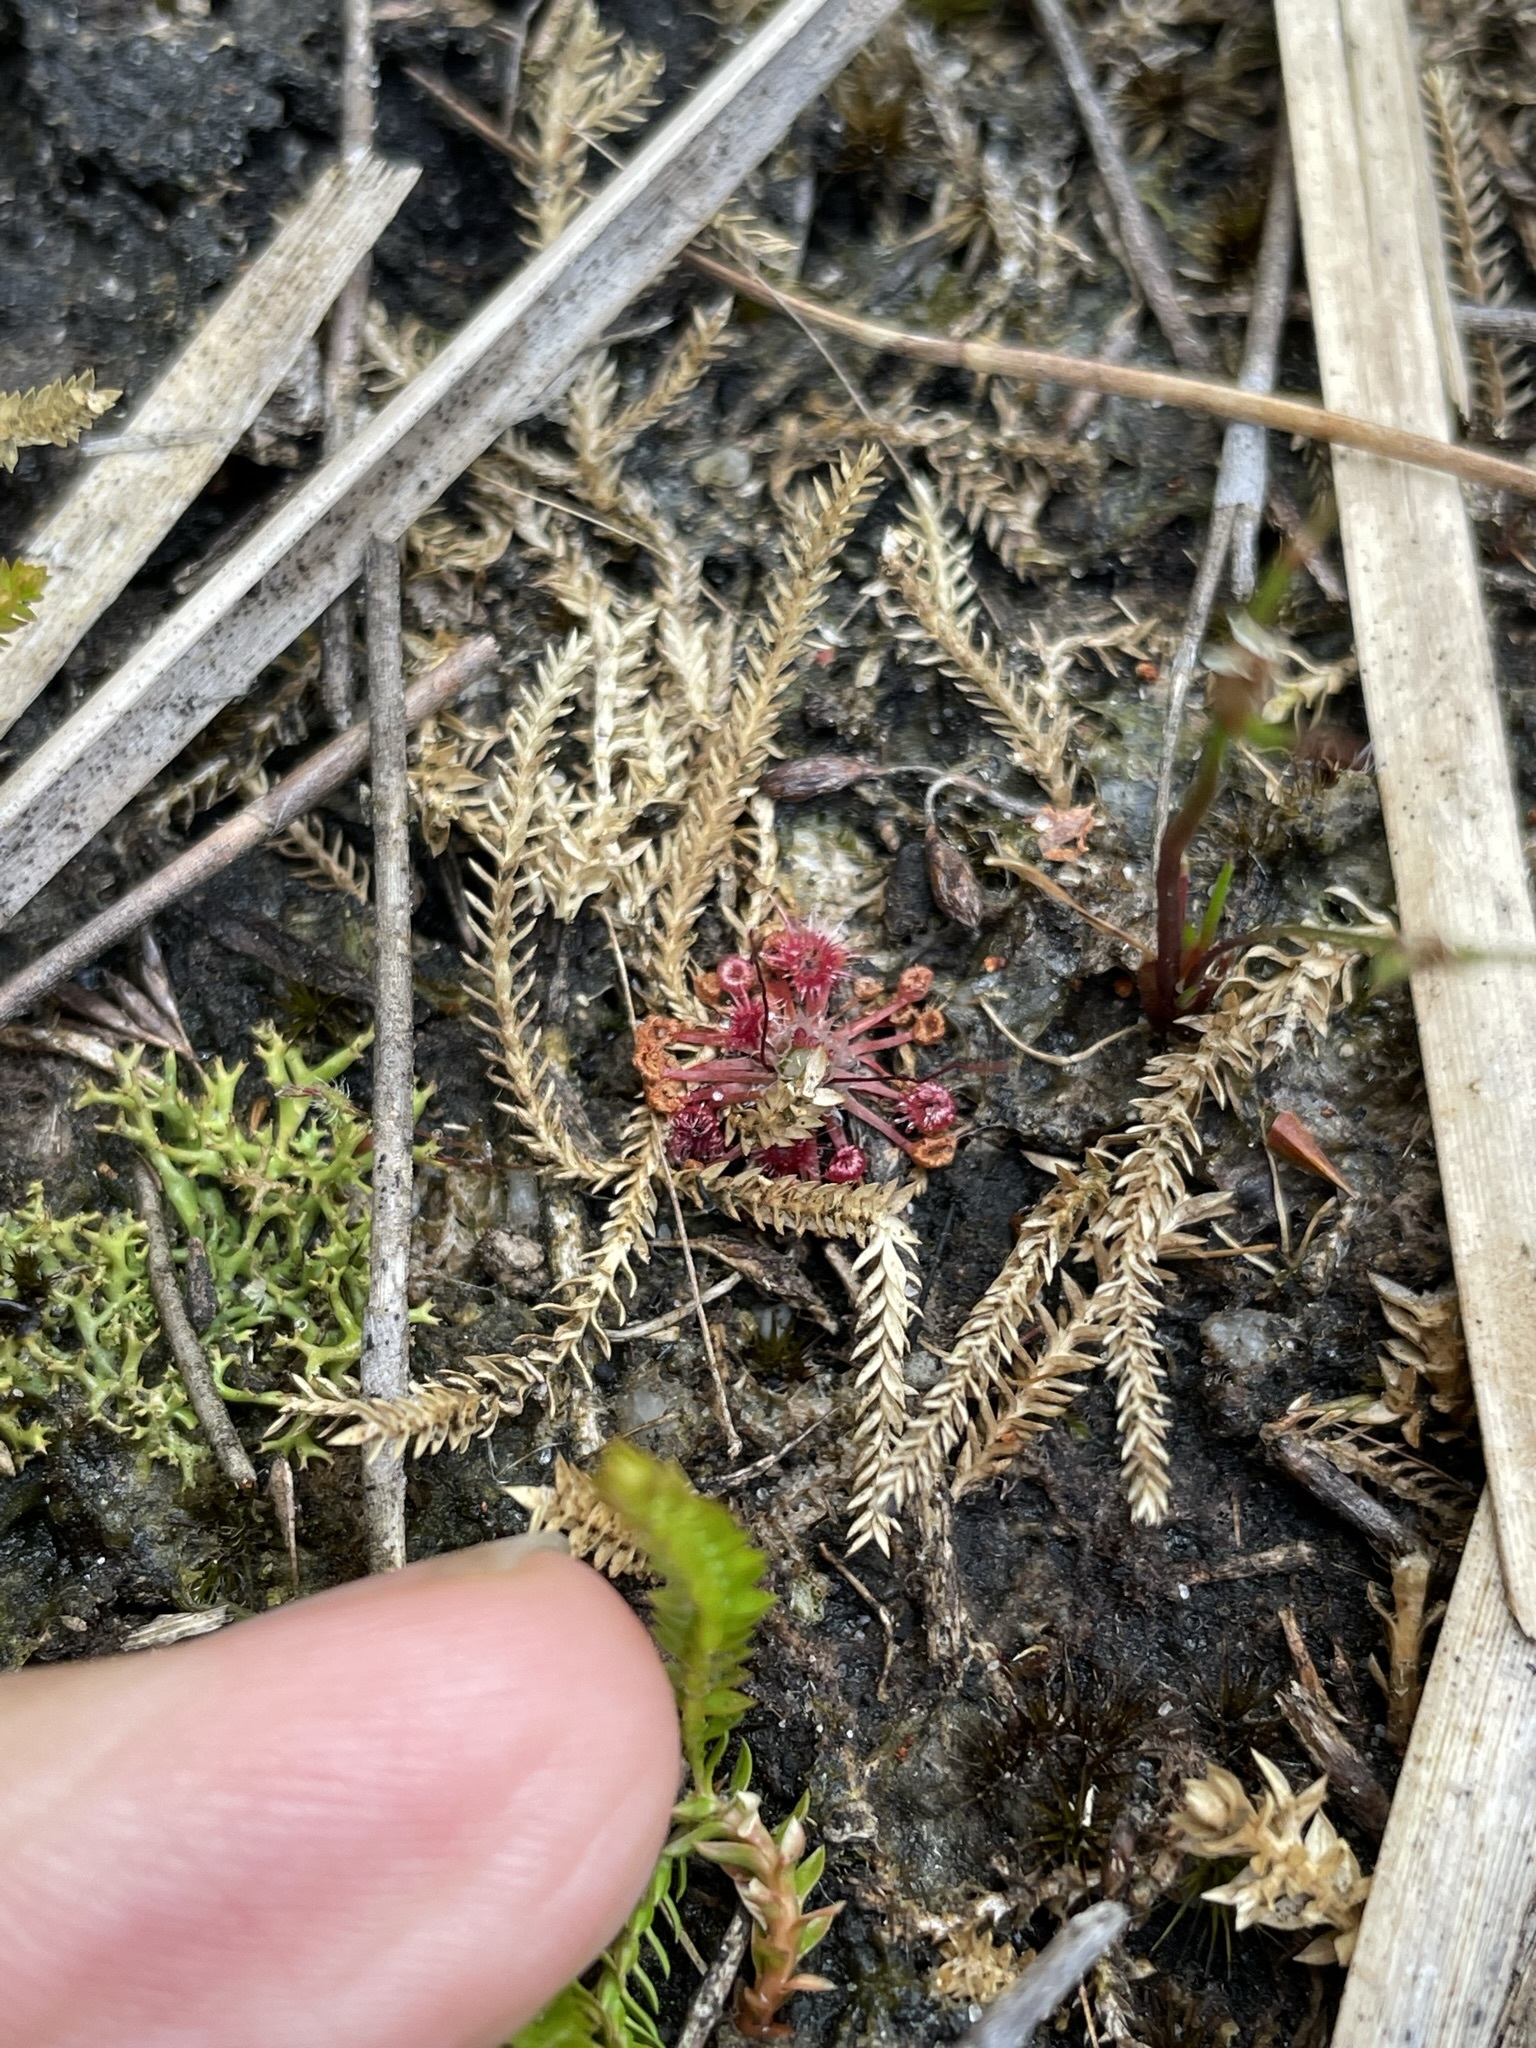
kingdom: Plantae
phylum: Tracheophyta
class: Magnoliopsida
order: Caryophyllales
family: Droseraceae
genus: Drosera
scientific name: Drosera pygmaea
